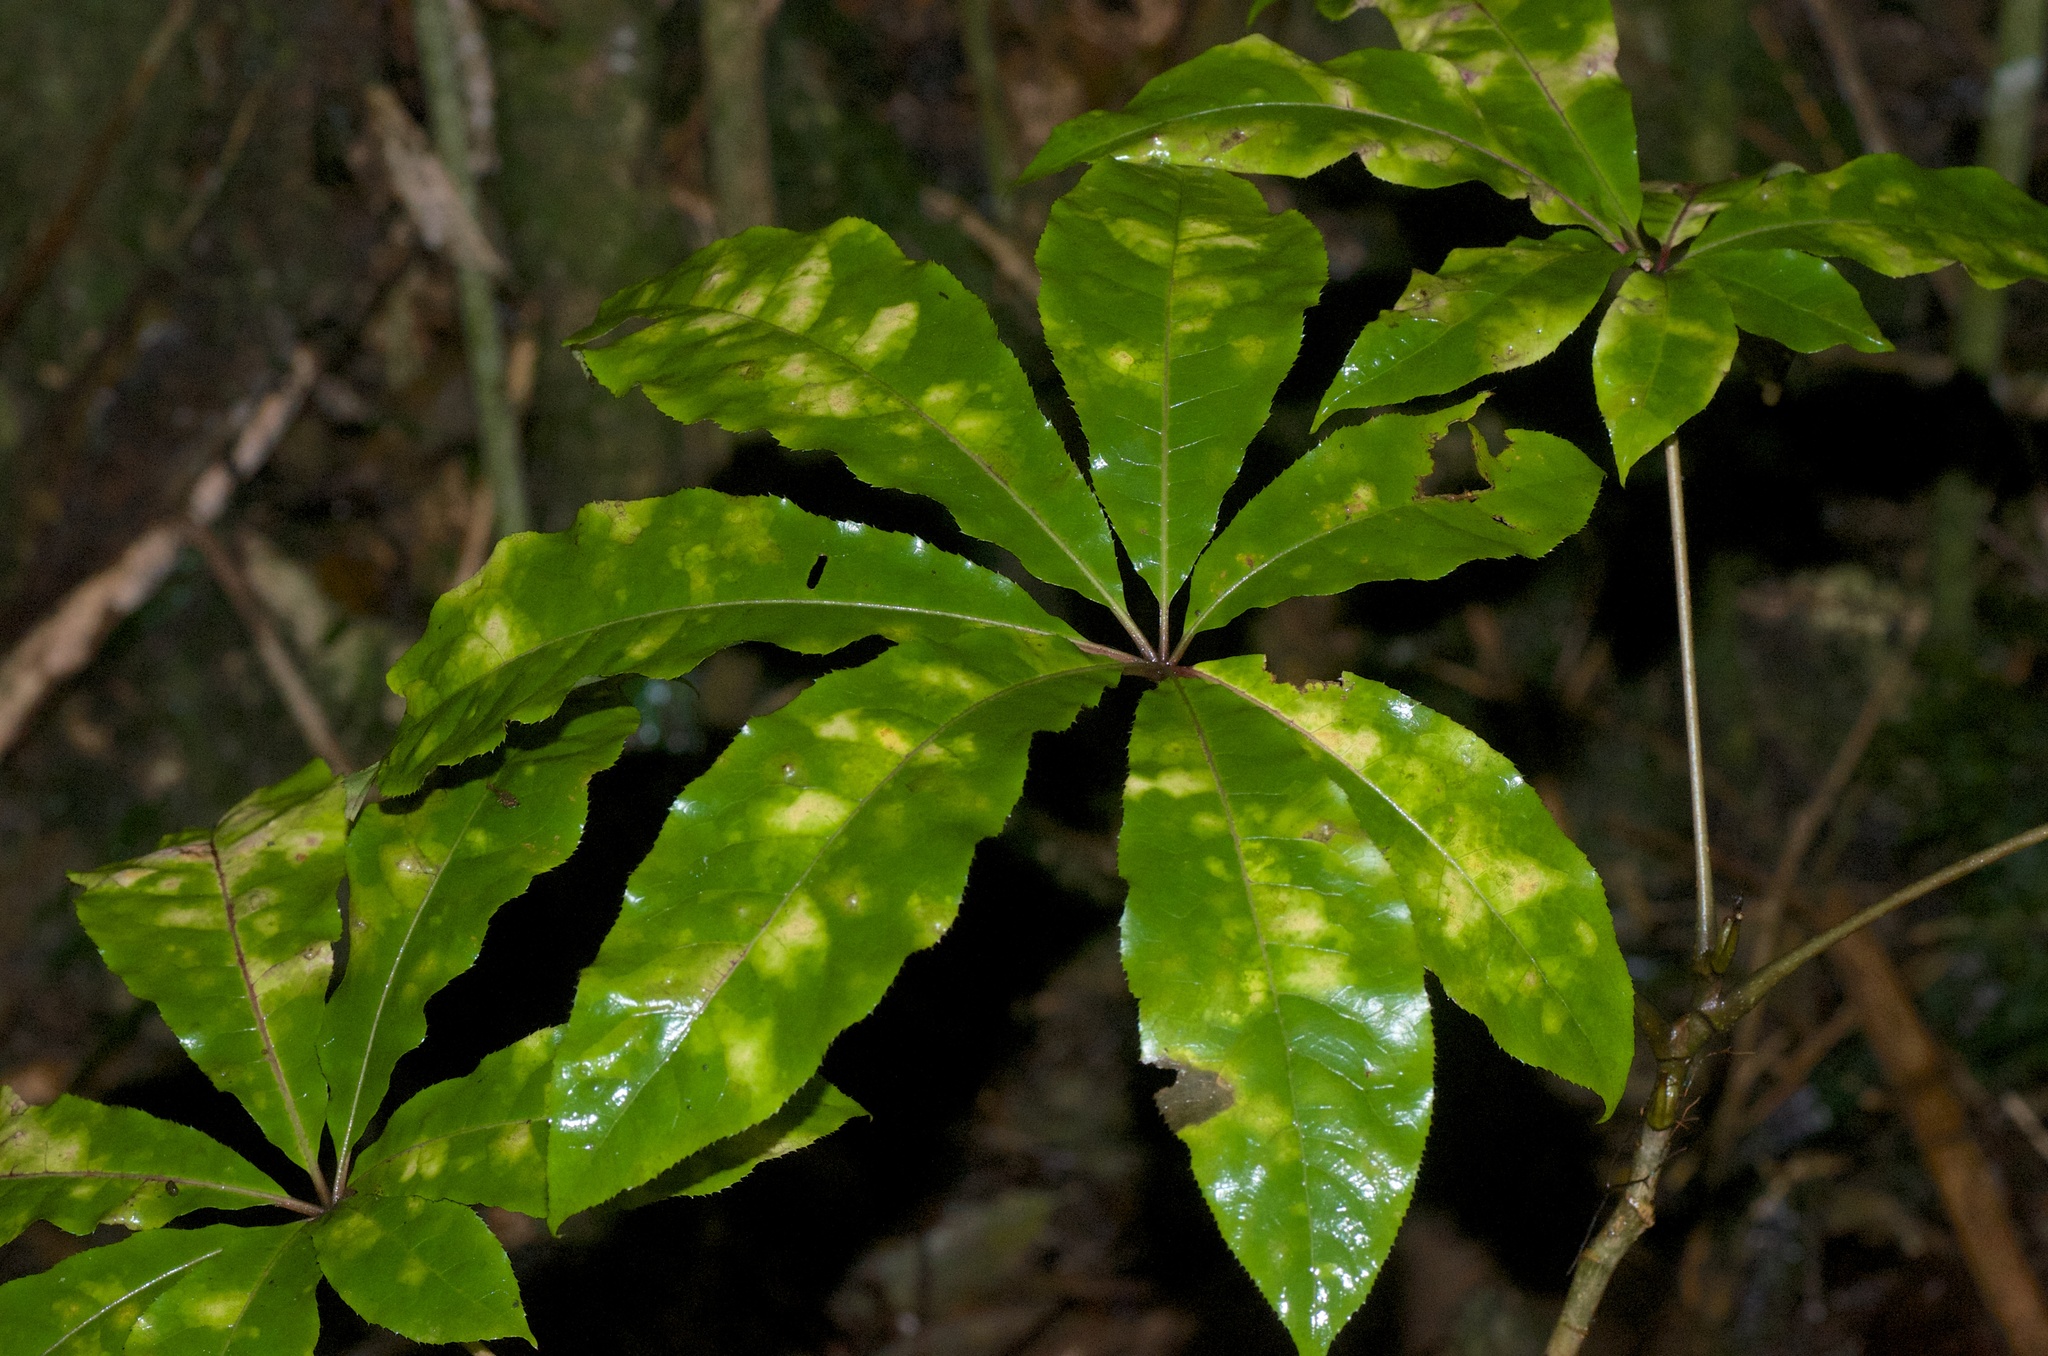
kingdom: Plantae
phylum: Tracheophyta
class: Magnoliopsida
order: Apiales
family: Araliaceae
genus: Schefflera
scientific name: Schefflera digitata
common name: Pate
